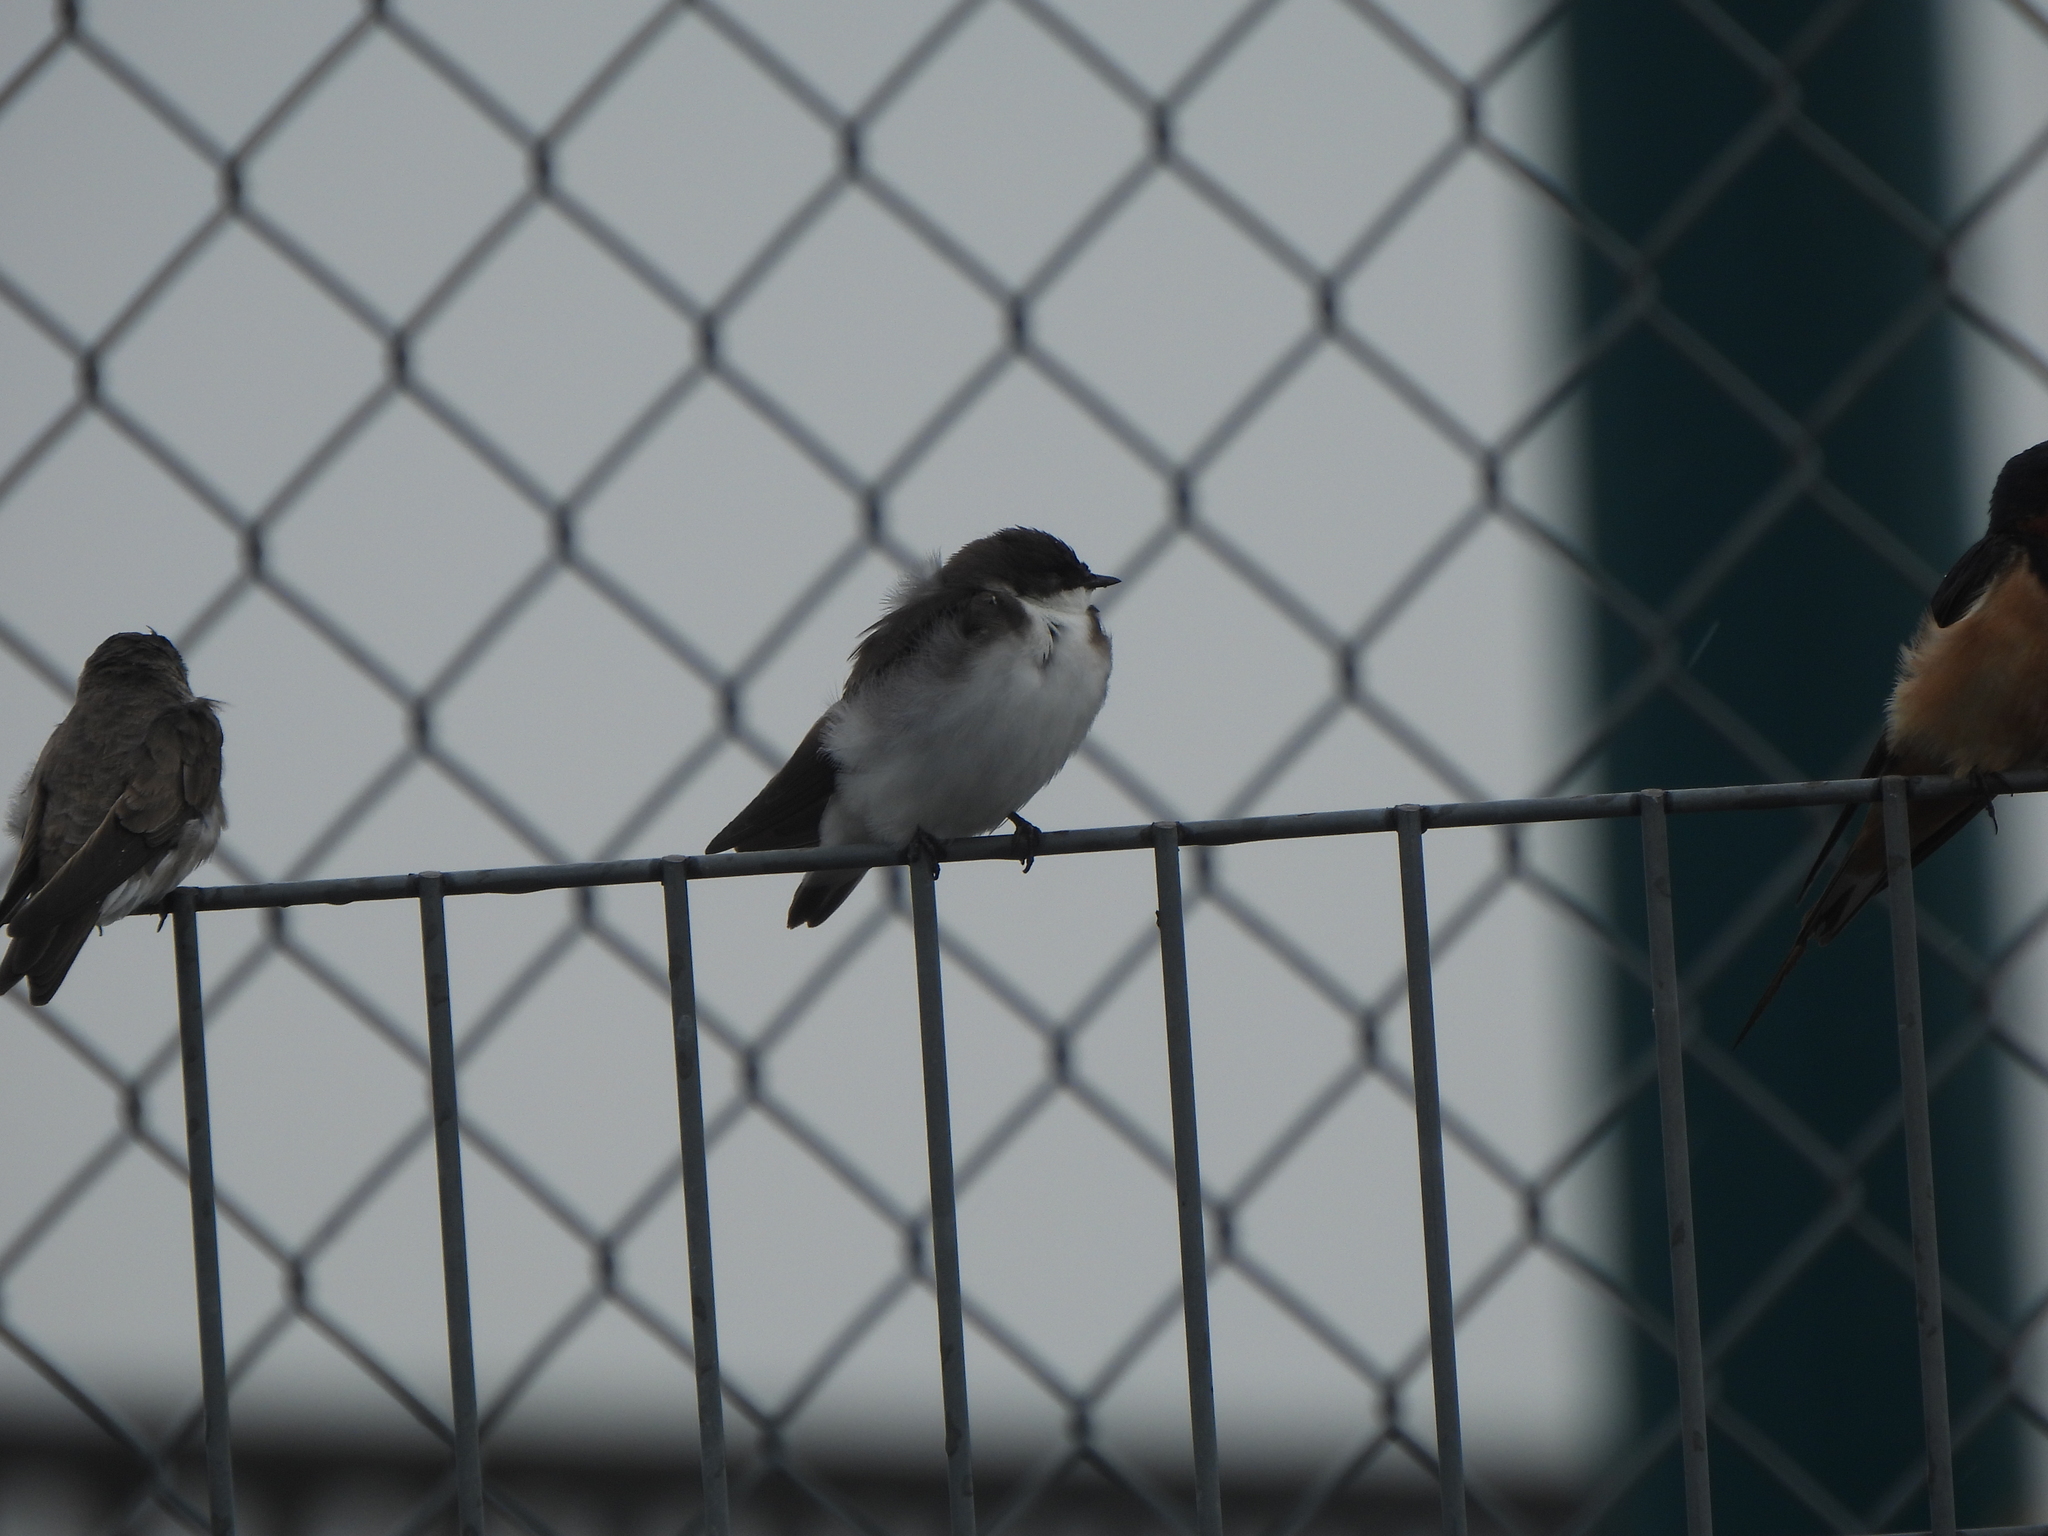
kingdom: Animalia
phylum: Chordata
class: Aves
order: Passeriformes
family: Hirundinidae
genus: Tachycineta
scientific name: Tachycineta bicolor
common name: Tree swallow
